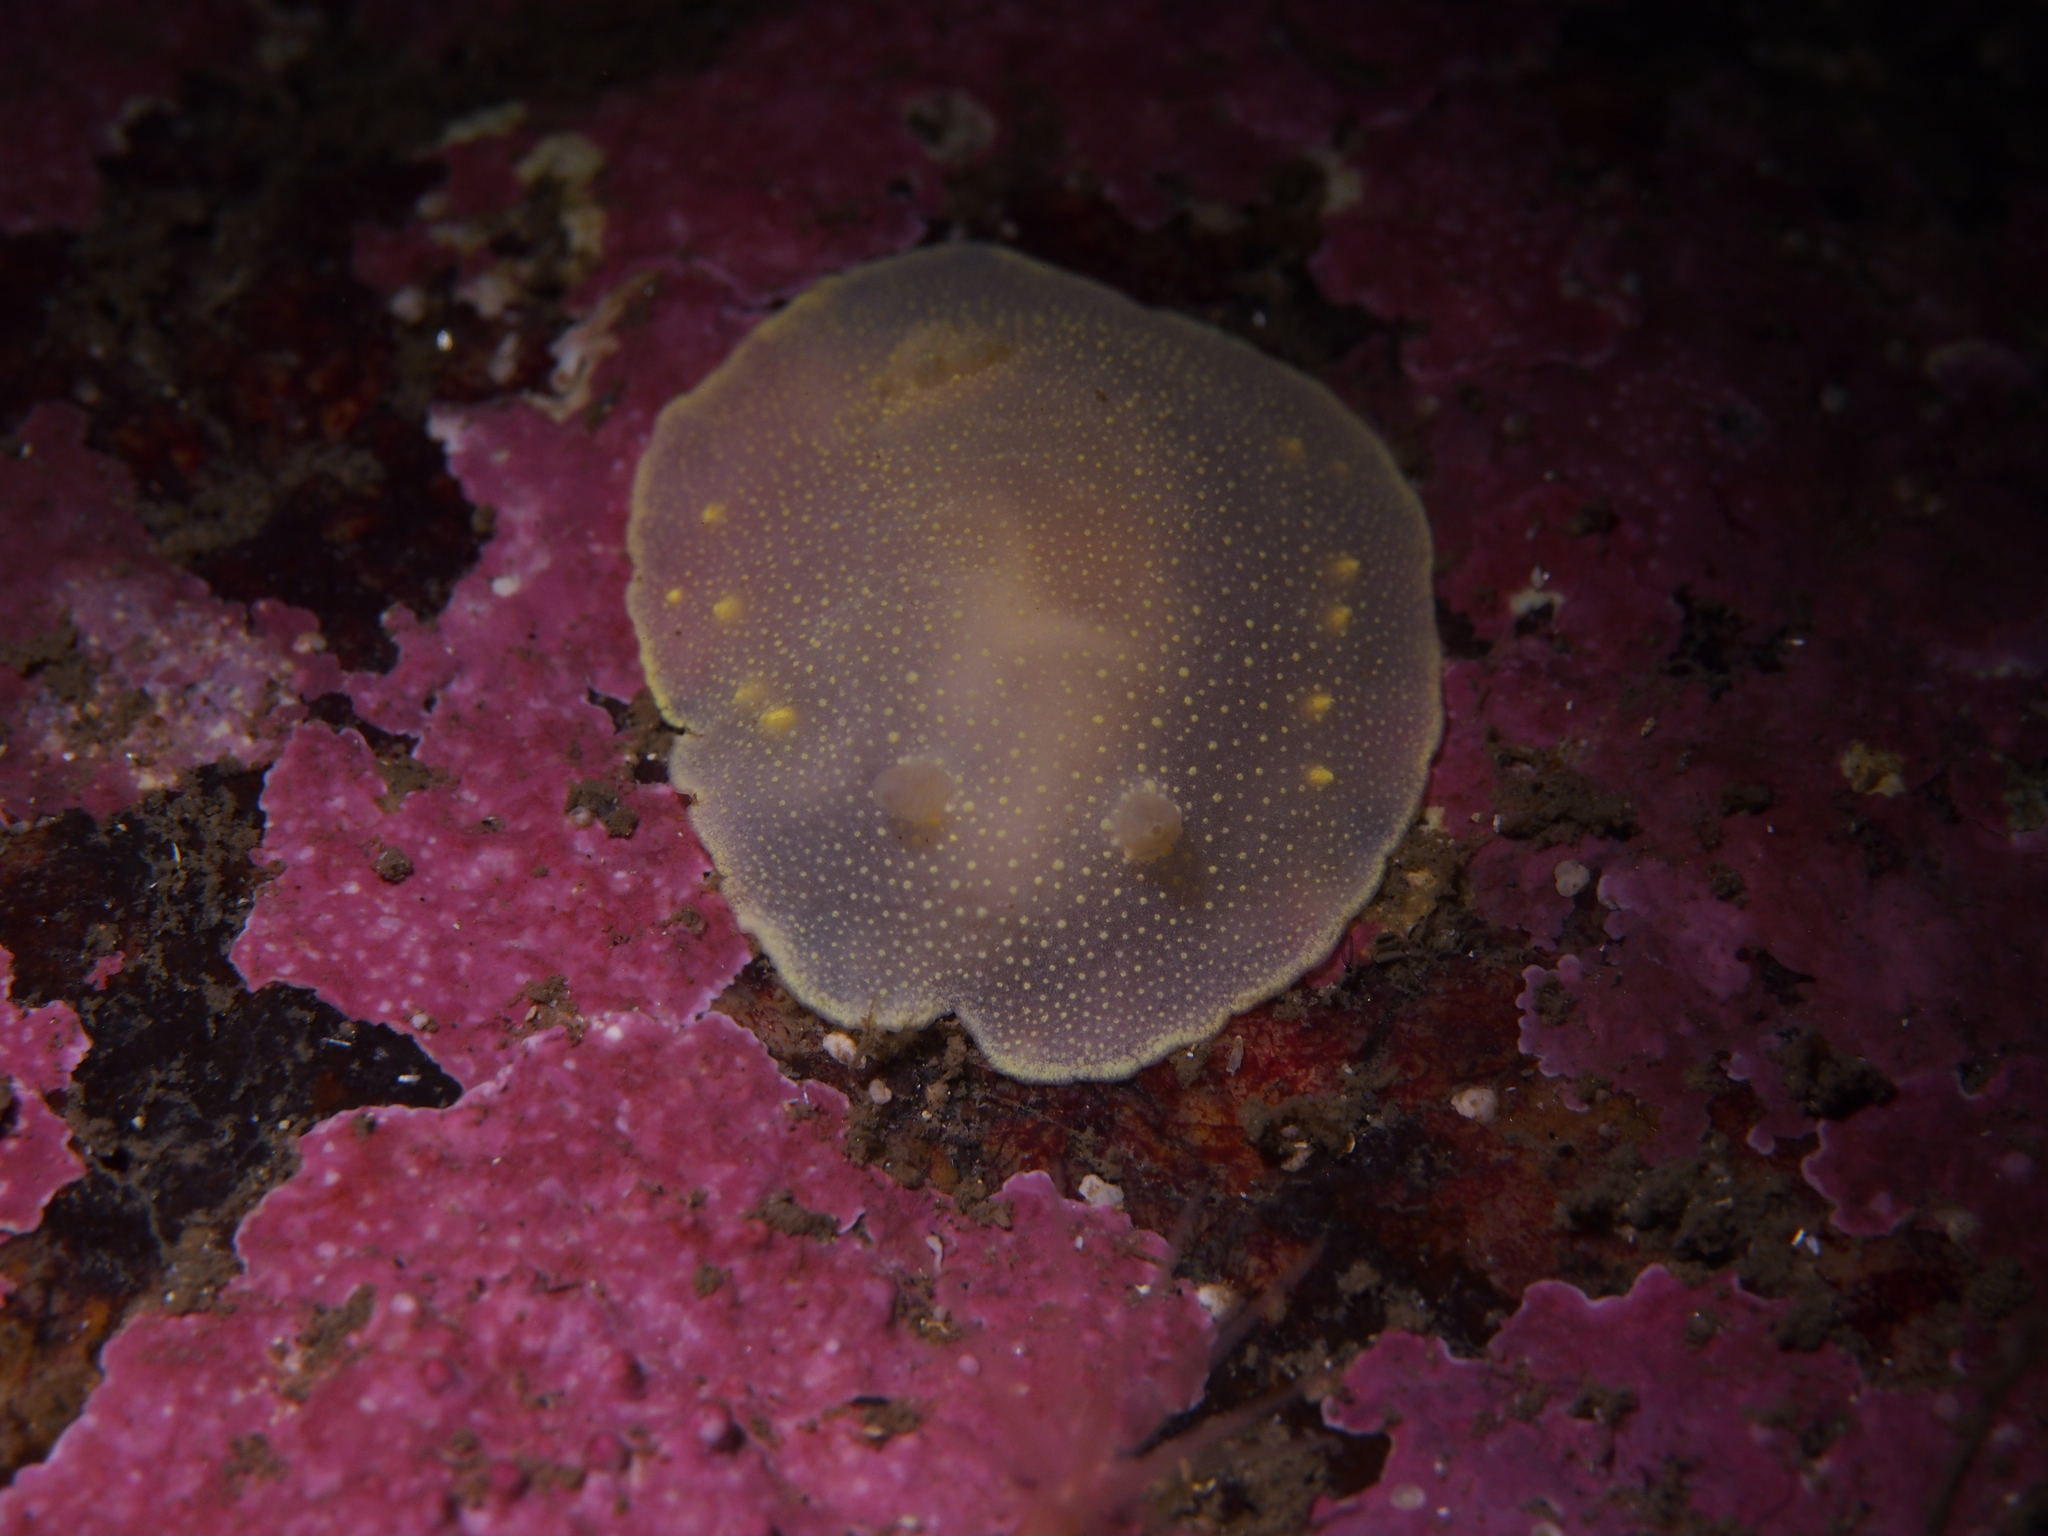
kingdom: Animalia
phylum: Mollusca
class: Gastropoda
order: Nudibranchia
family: Cadlinidae
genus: Cadlina
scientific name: Cadlina laevis
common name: White atlantic cadlina
